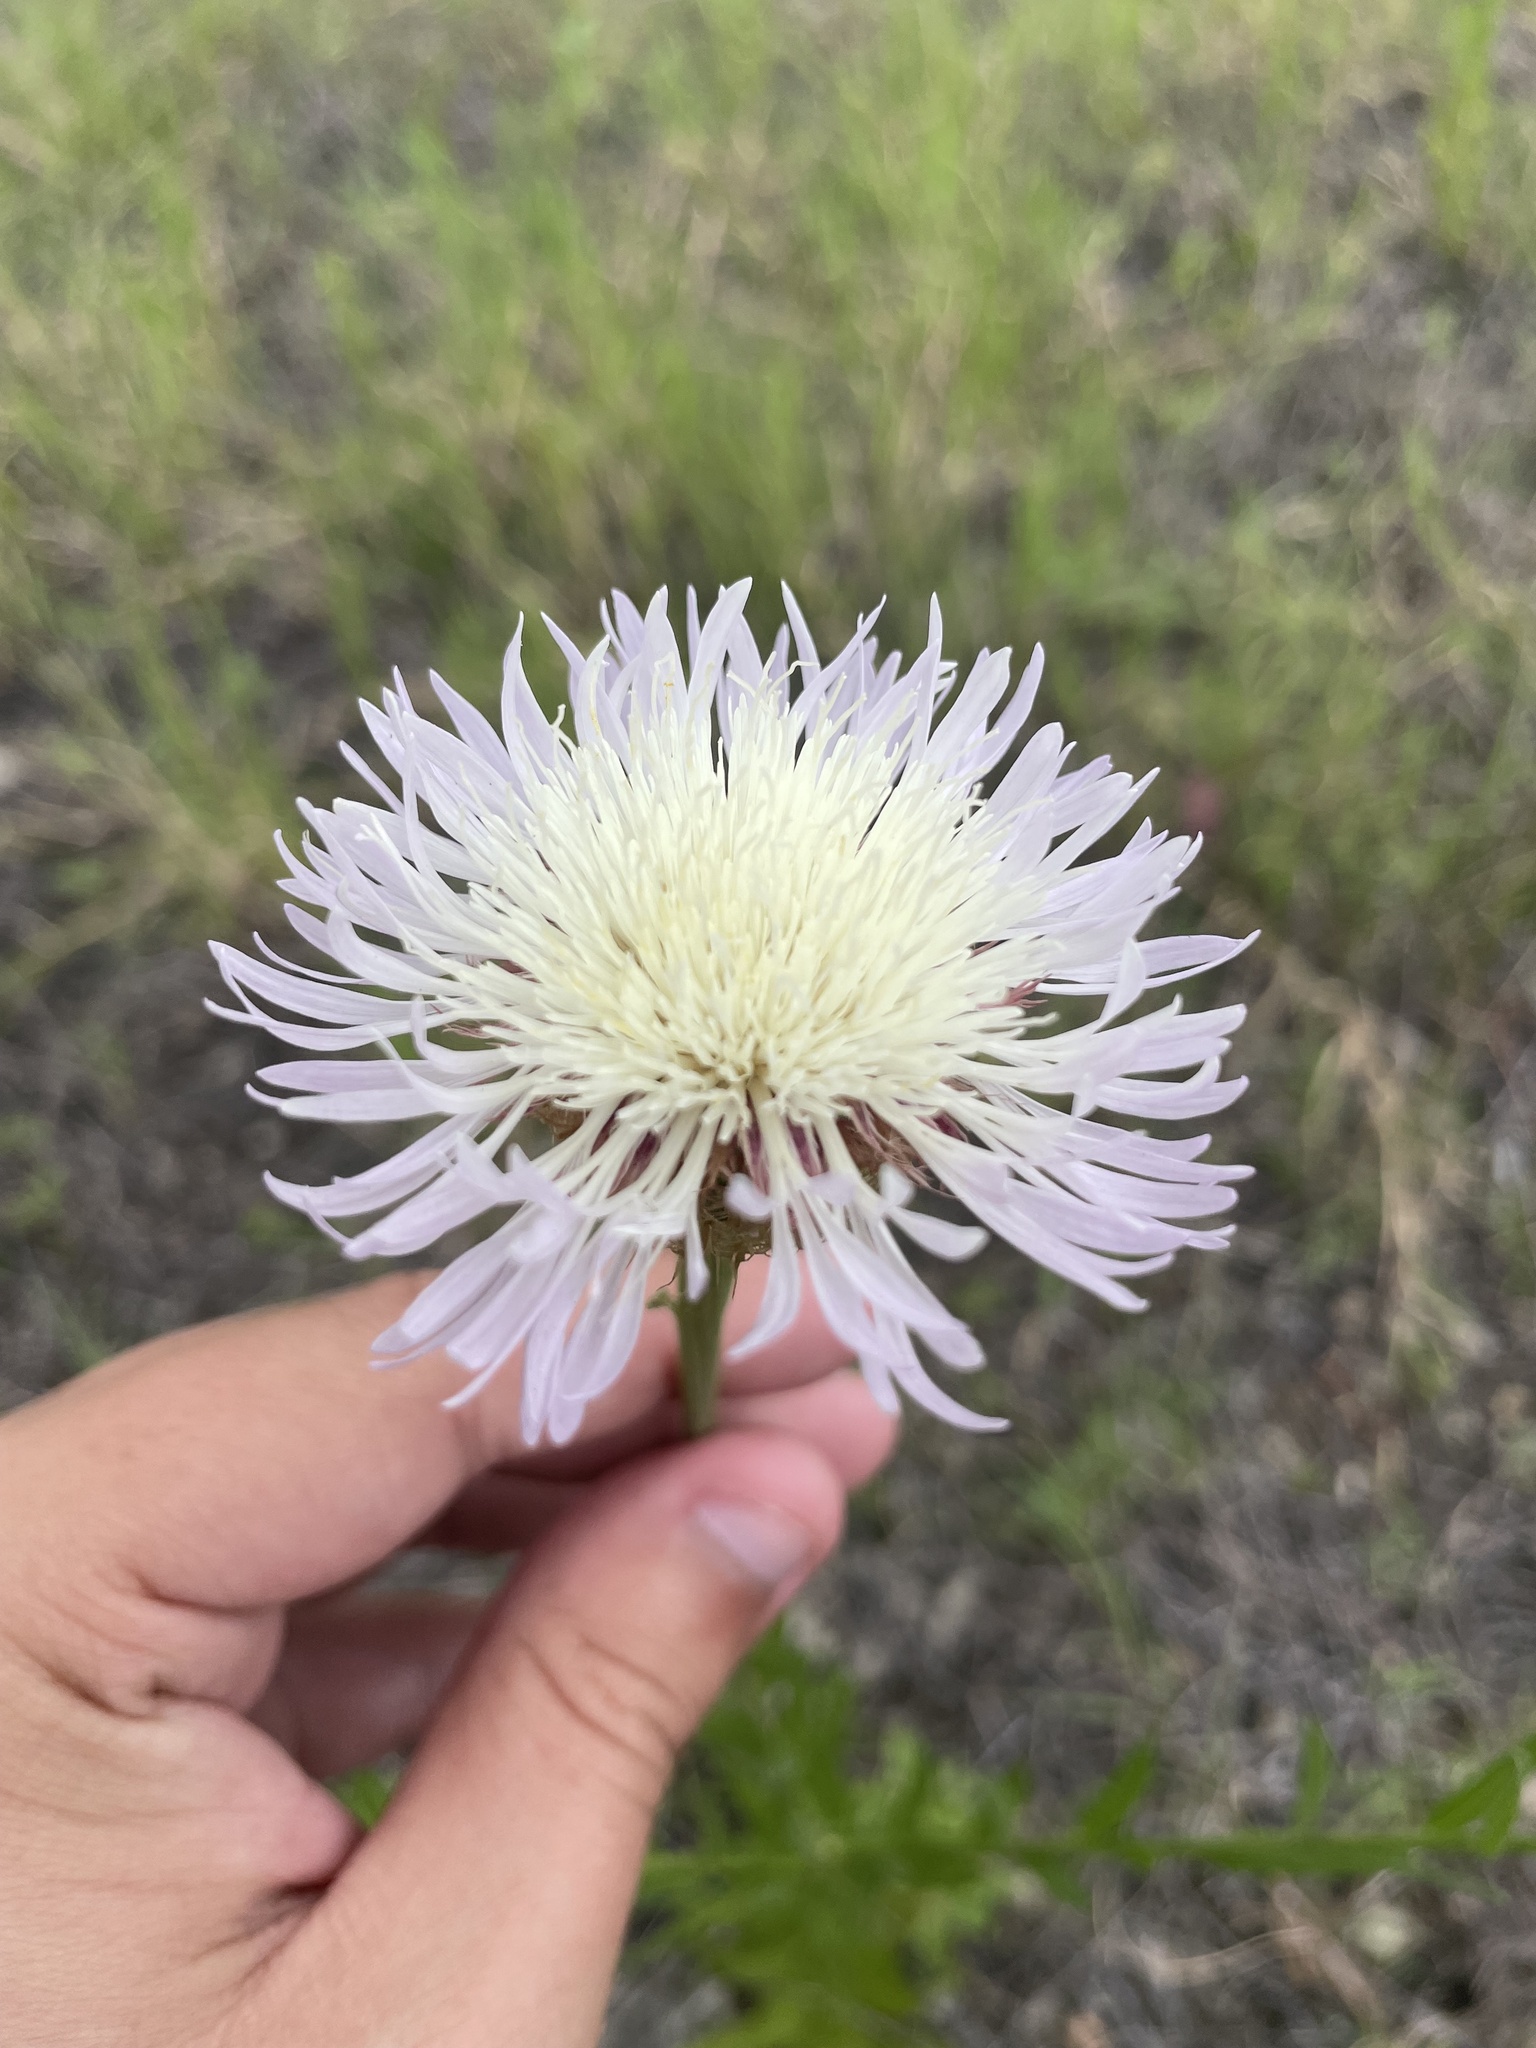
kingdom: Plantae
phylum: Tracheophyta
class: Magnoliopsida
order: Asterales
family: Asteraceae
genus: Plectocephalus
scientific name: Plectocephalus americanus
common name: American basket-flower
